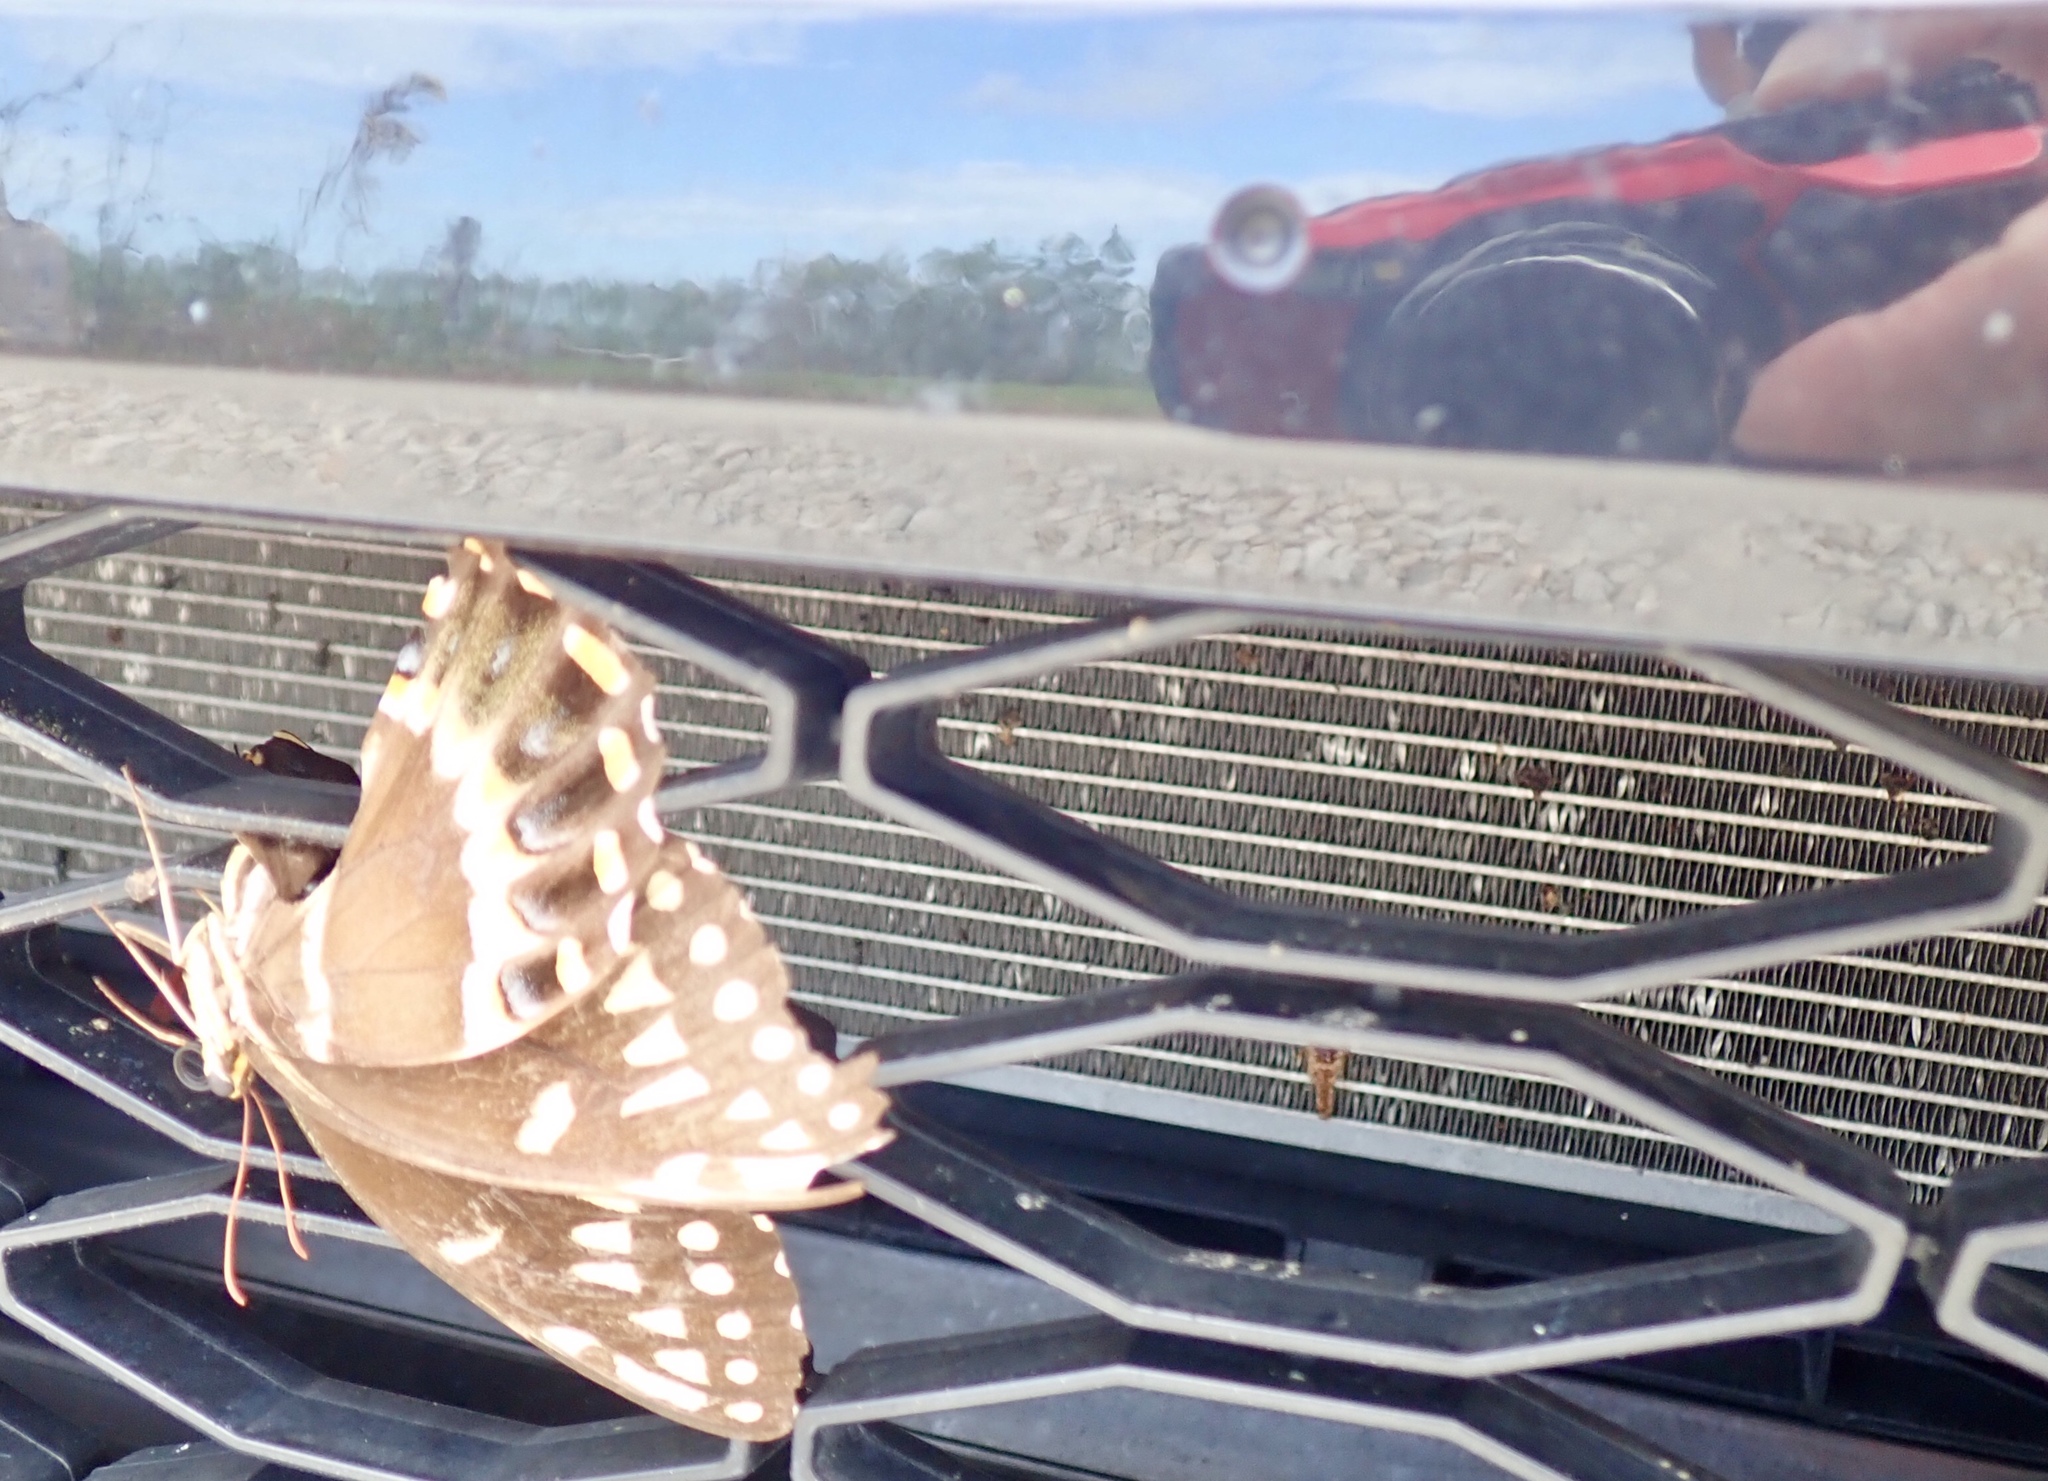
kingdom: Animalia
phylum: Arthropoda
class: Insecta
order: Lepidoptera
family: Papilionidae
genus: Papilio
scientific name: Papilio palamedes
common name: Palamedes swallowtail
